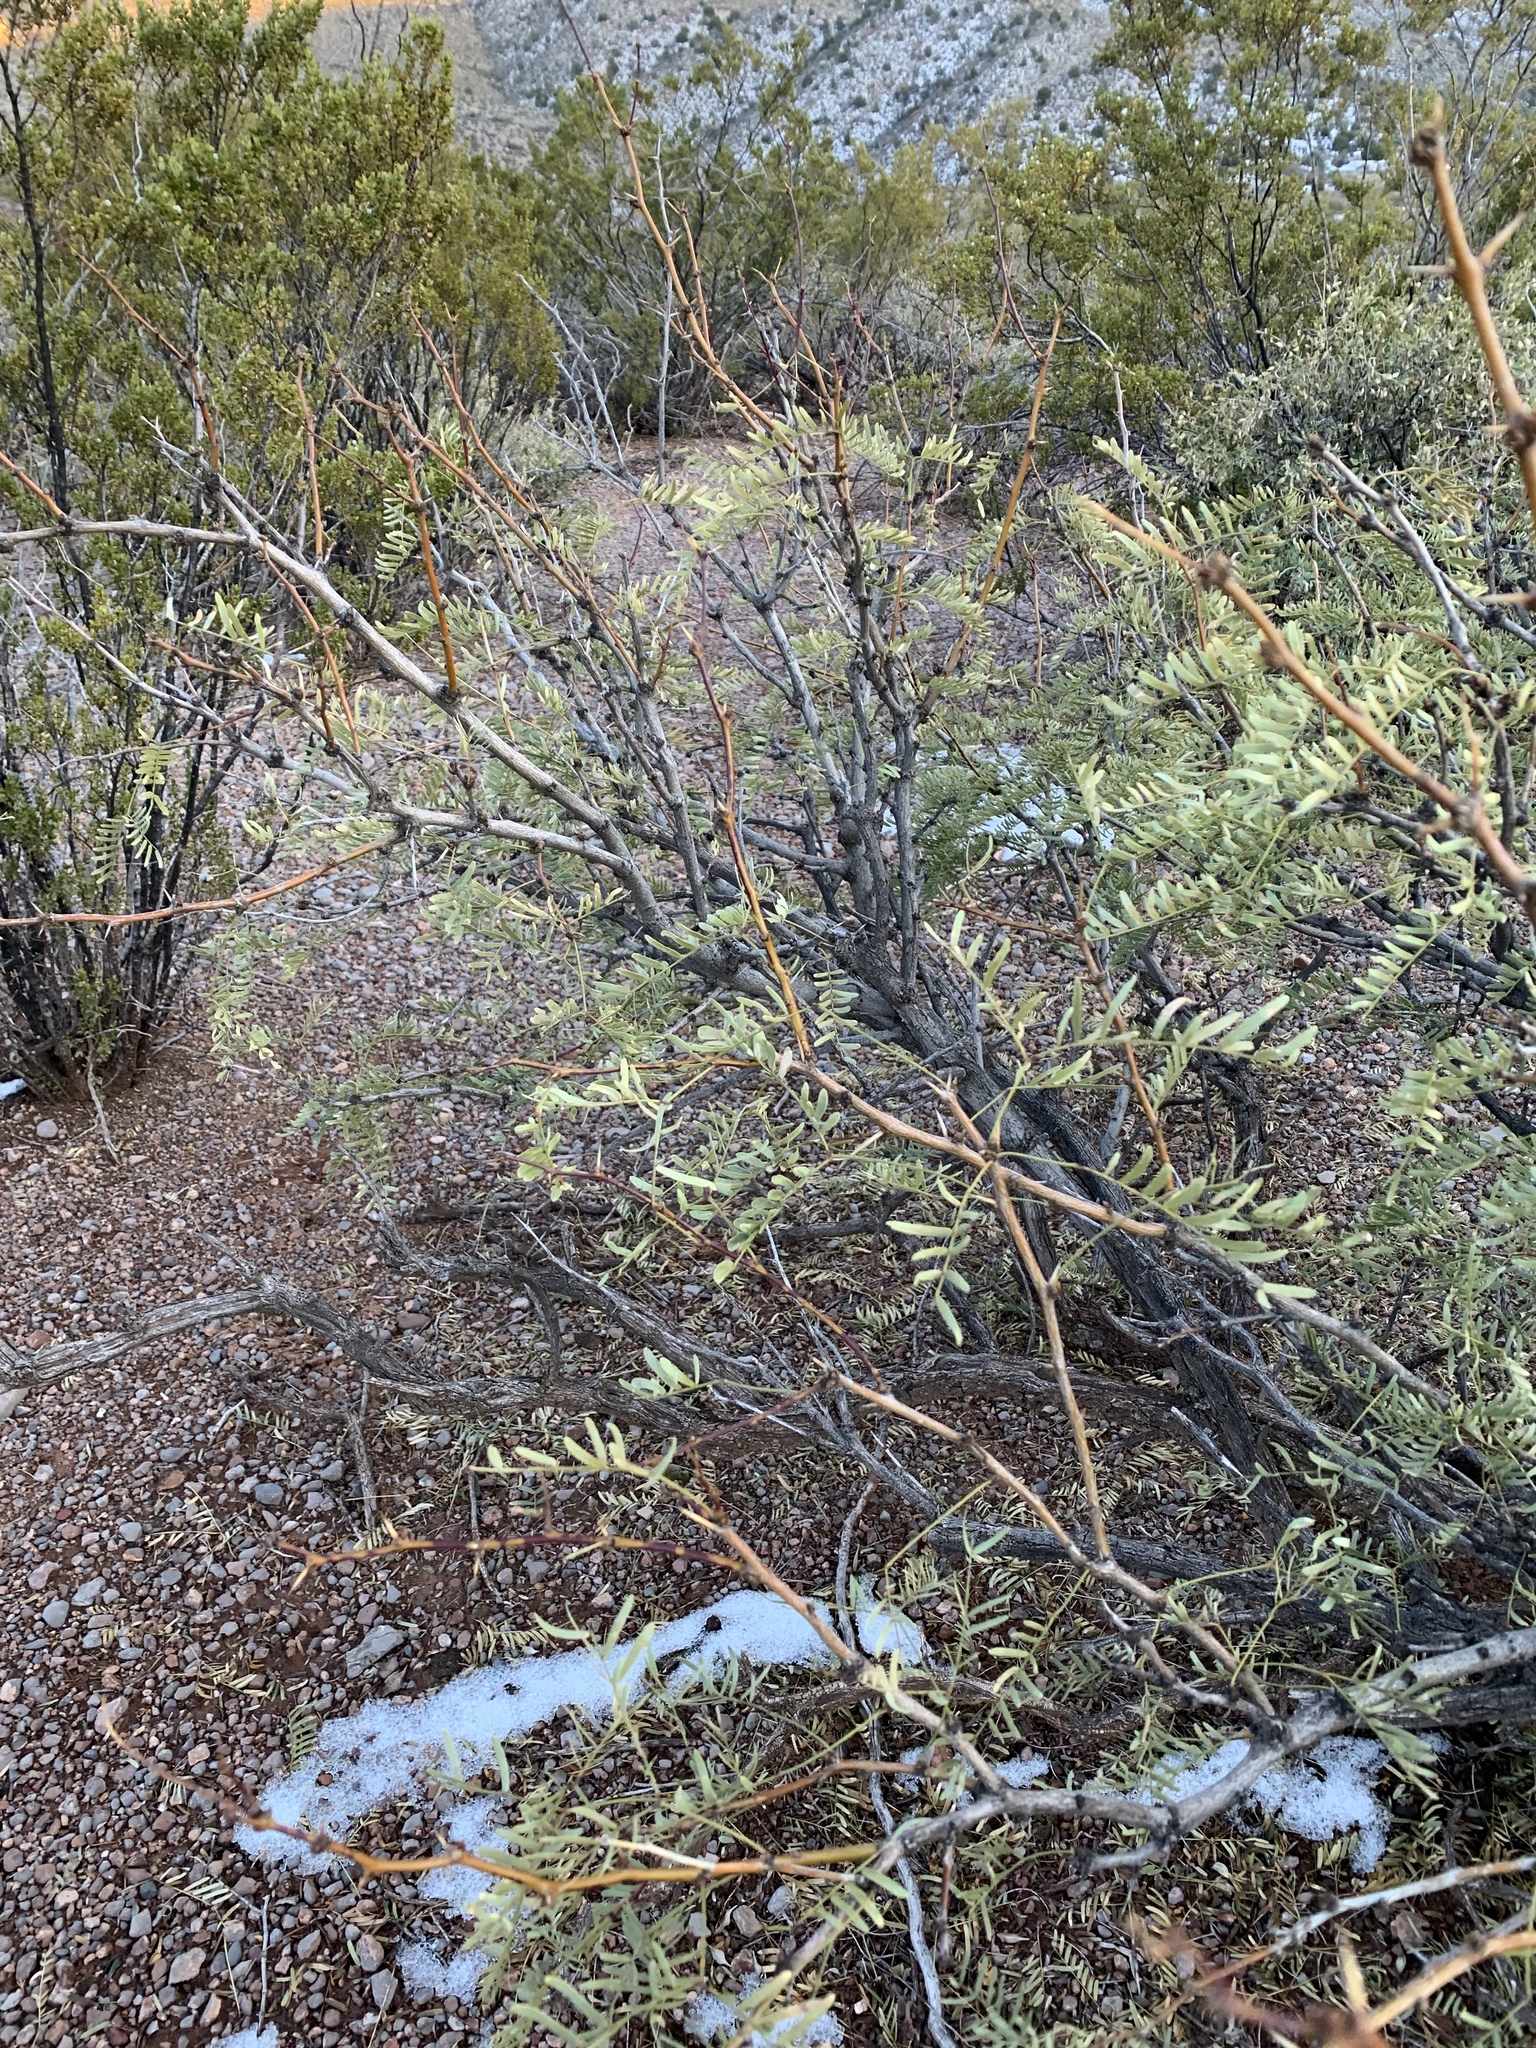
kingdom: Plantae
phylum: Tracheophyta
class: Magnoliopsida
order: Fabales
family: Fabaceae
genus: Prosopis
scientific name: Prosopis glandulosa
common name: Honey mesquite
